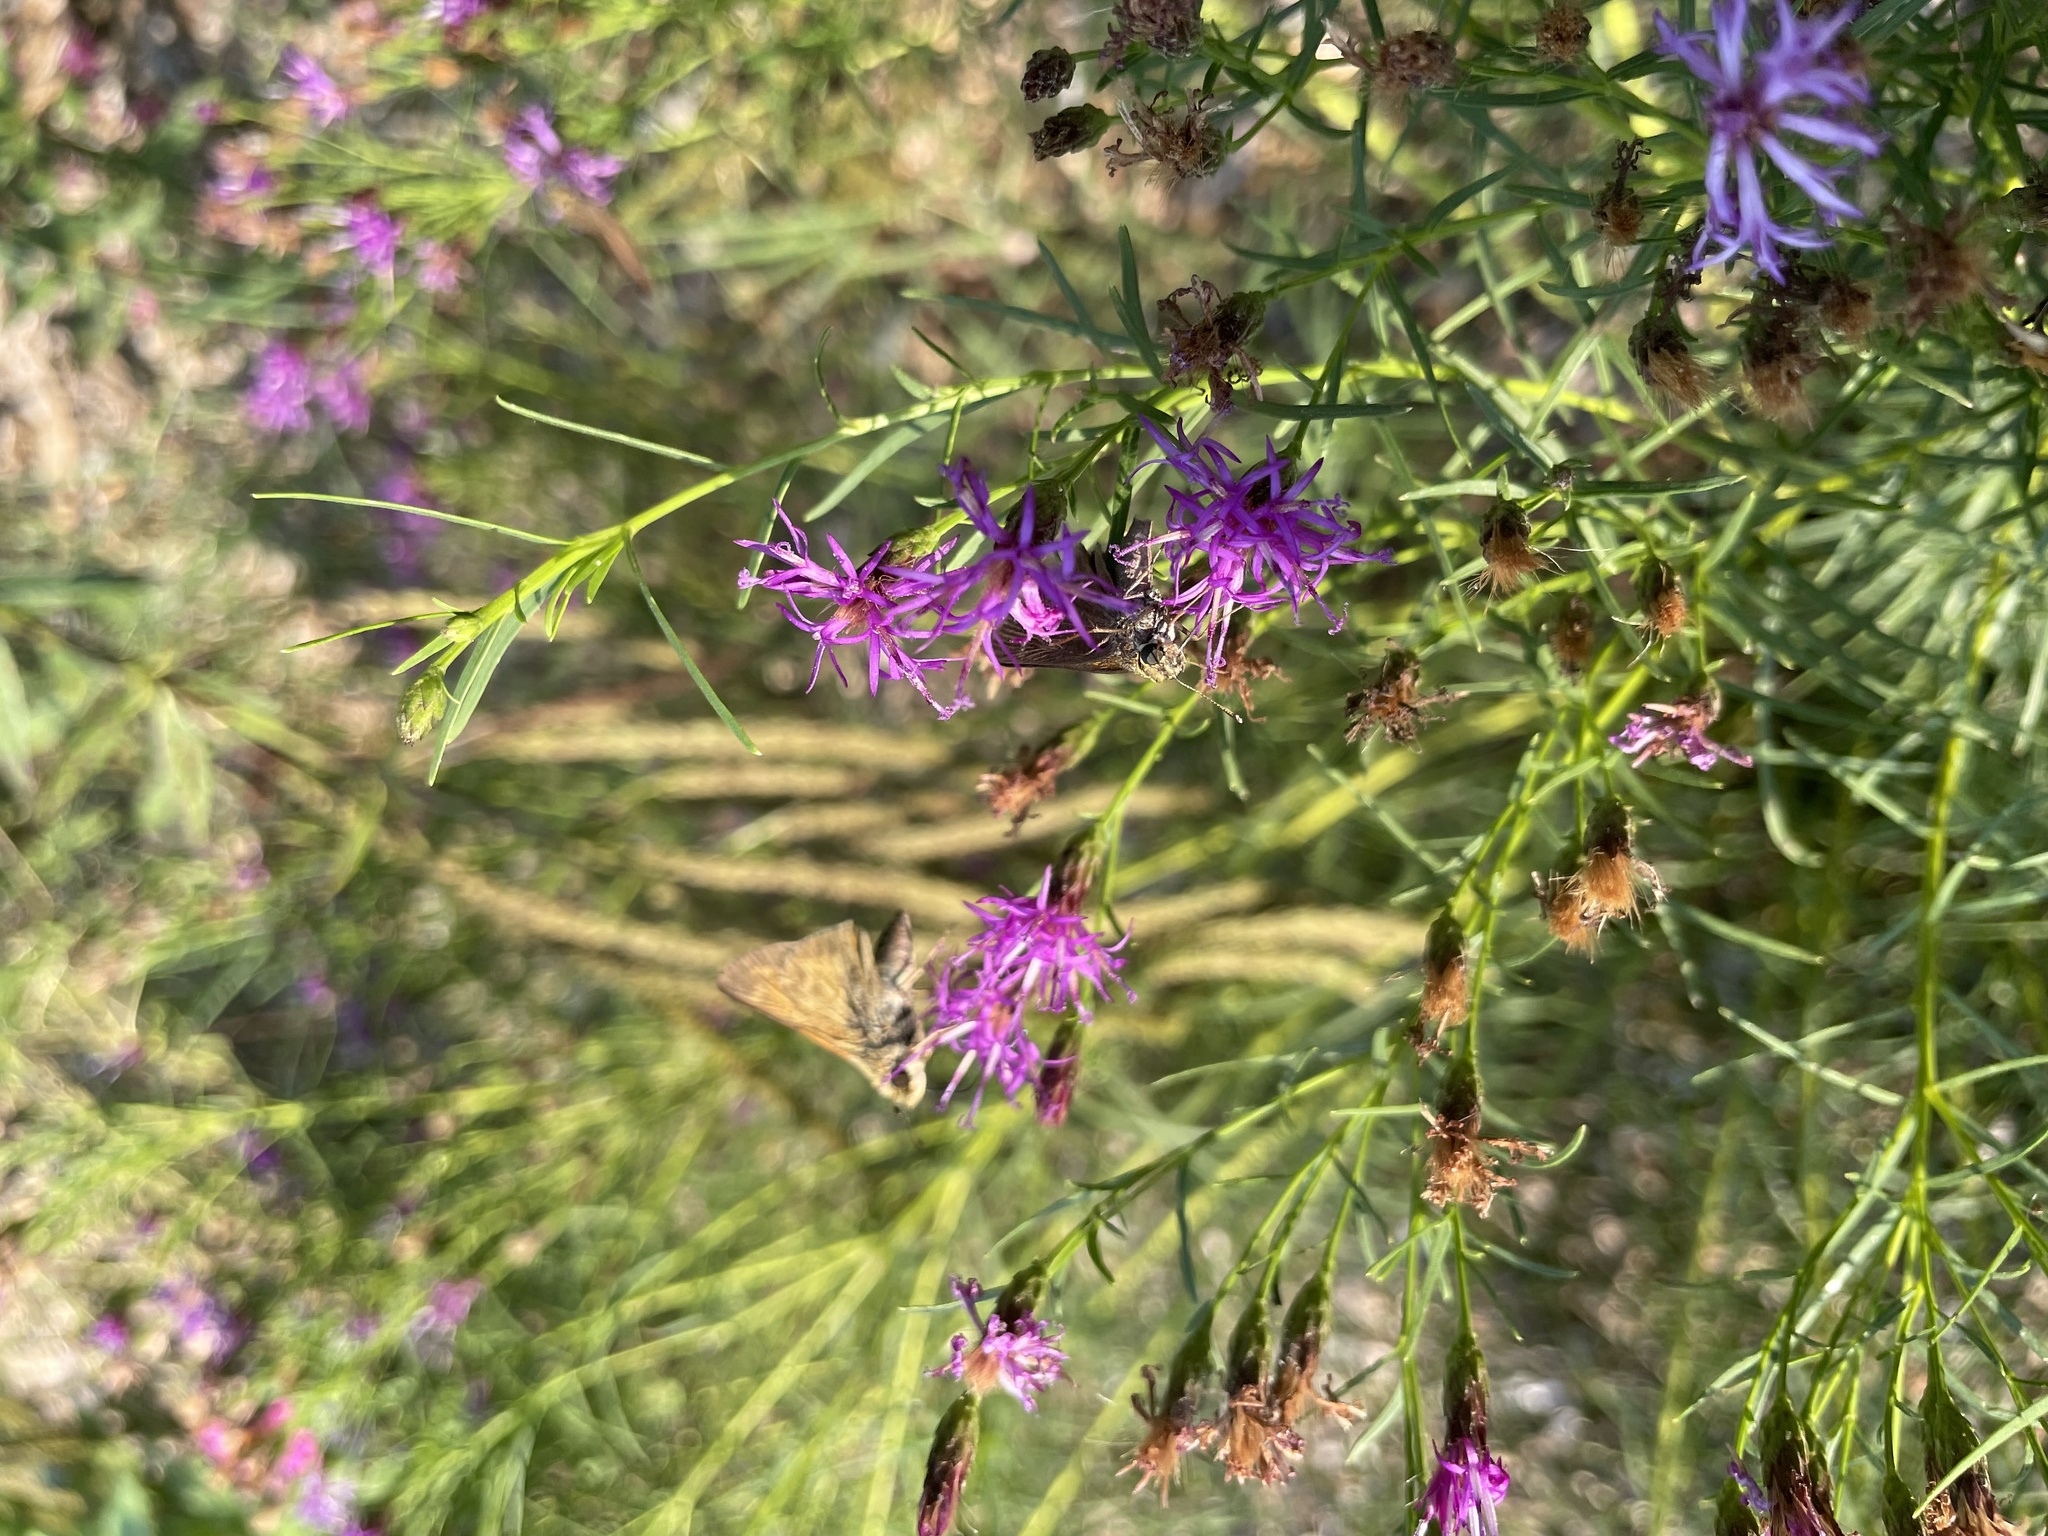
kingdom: Animalia
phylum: Arthropoda
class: Insecta
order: Lepidoptera
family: Hesperiidae
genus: Atalopedes
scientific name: Atalopedes
